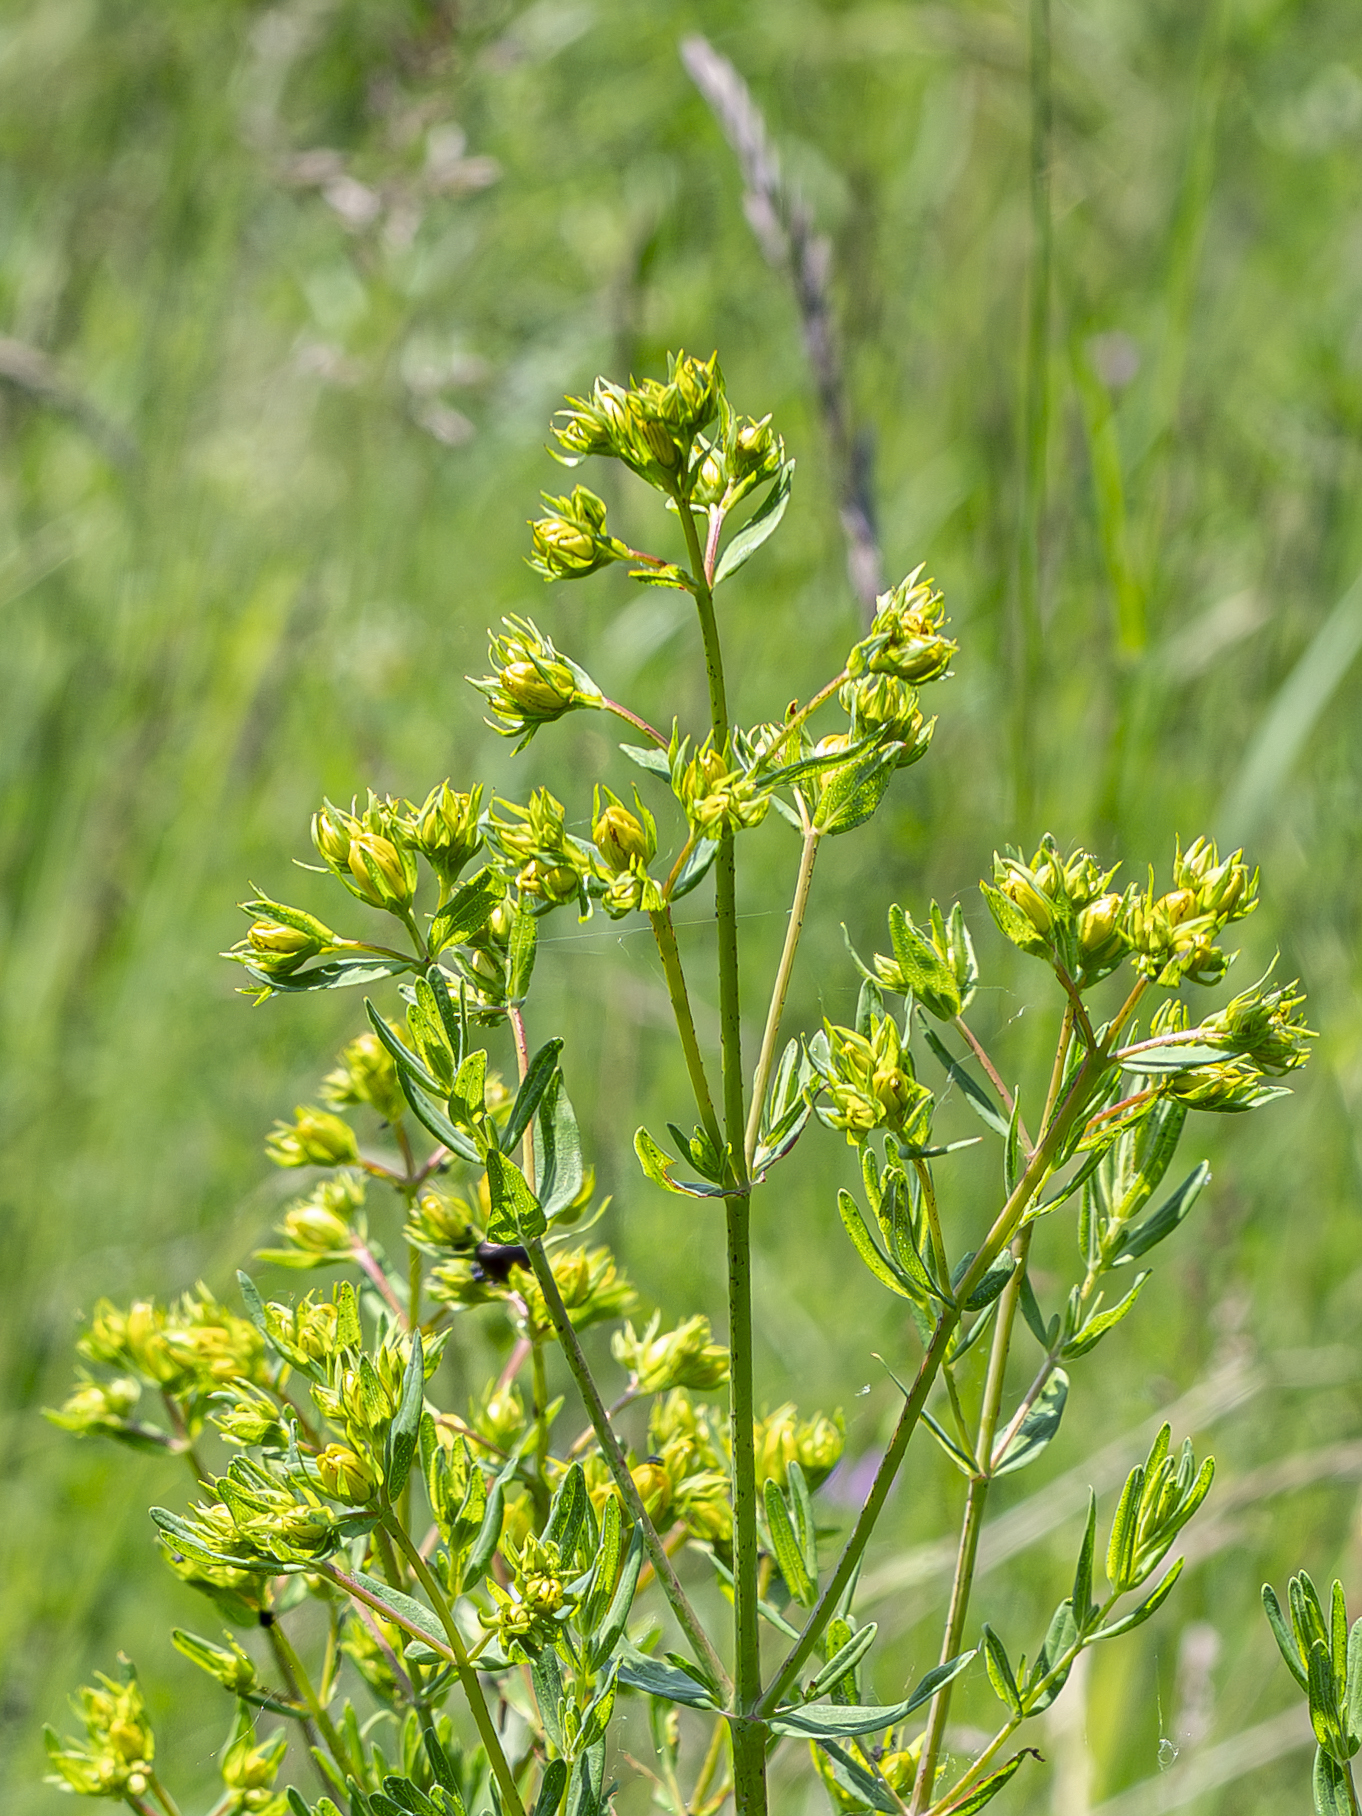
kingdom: Plantae
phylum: Tracheophyta
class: Magnoliopsida
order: Malpighiales
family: Hypericaceae
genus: Hypericum
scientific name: Hypericum perforatum
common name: Common st. johnswort
